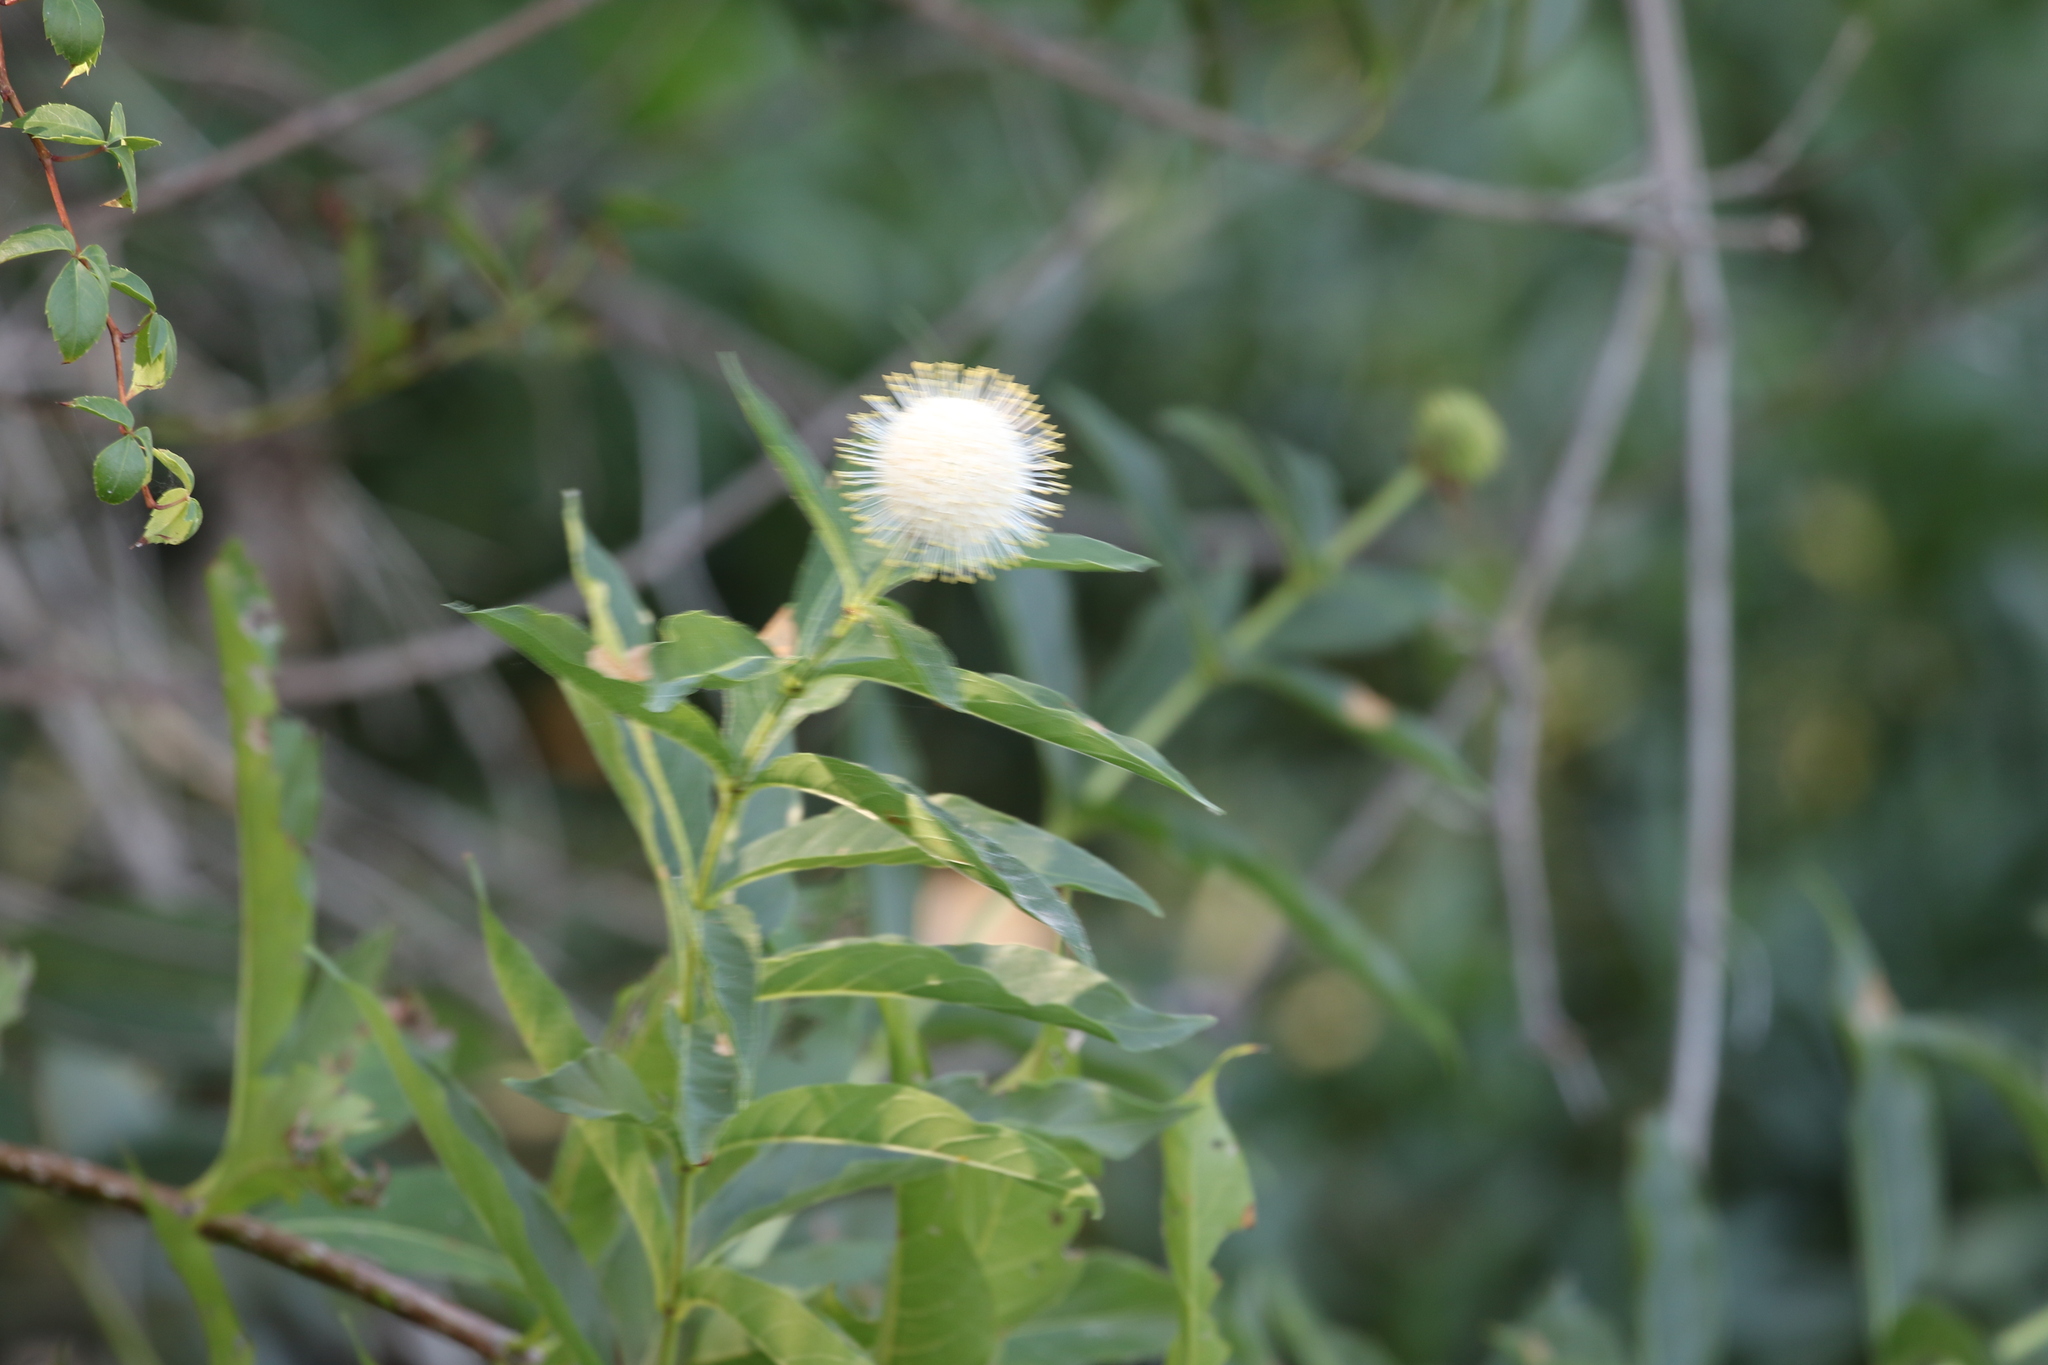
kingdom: Plantae
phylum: Tracheophyta
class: Magnoliopsida
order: Gentianales
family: Rubiaceae
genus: Cephalanthus
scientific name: Cephalanthus occidentalis
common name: Button-willow
